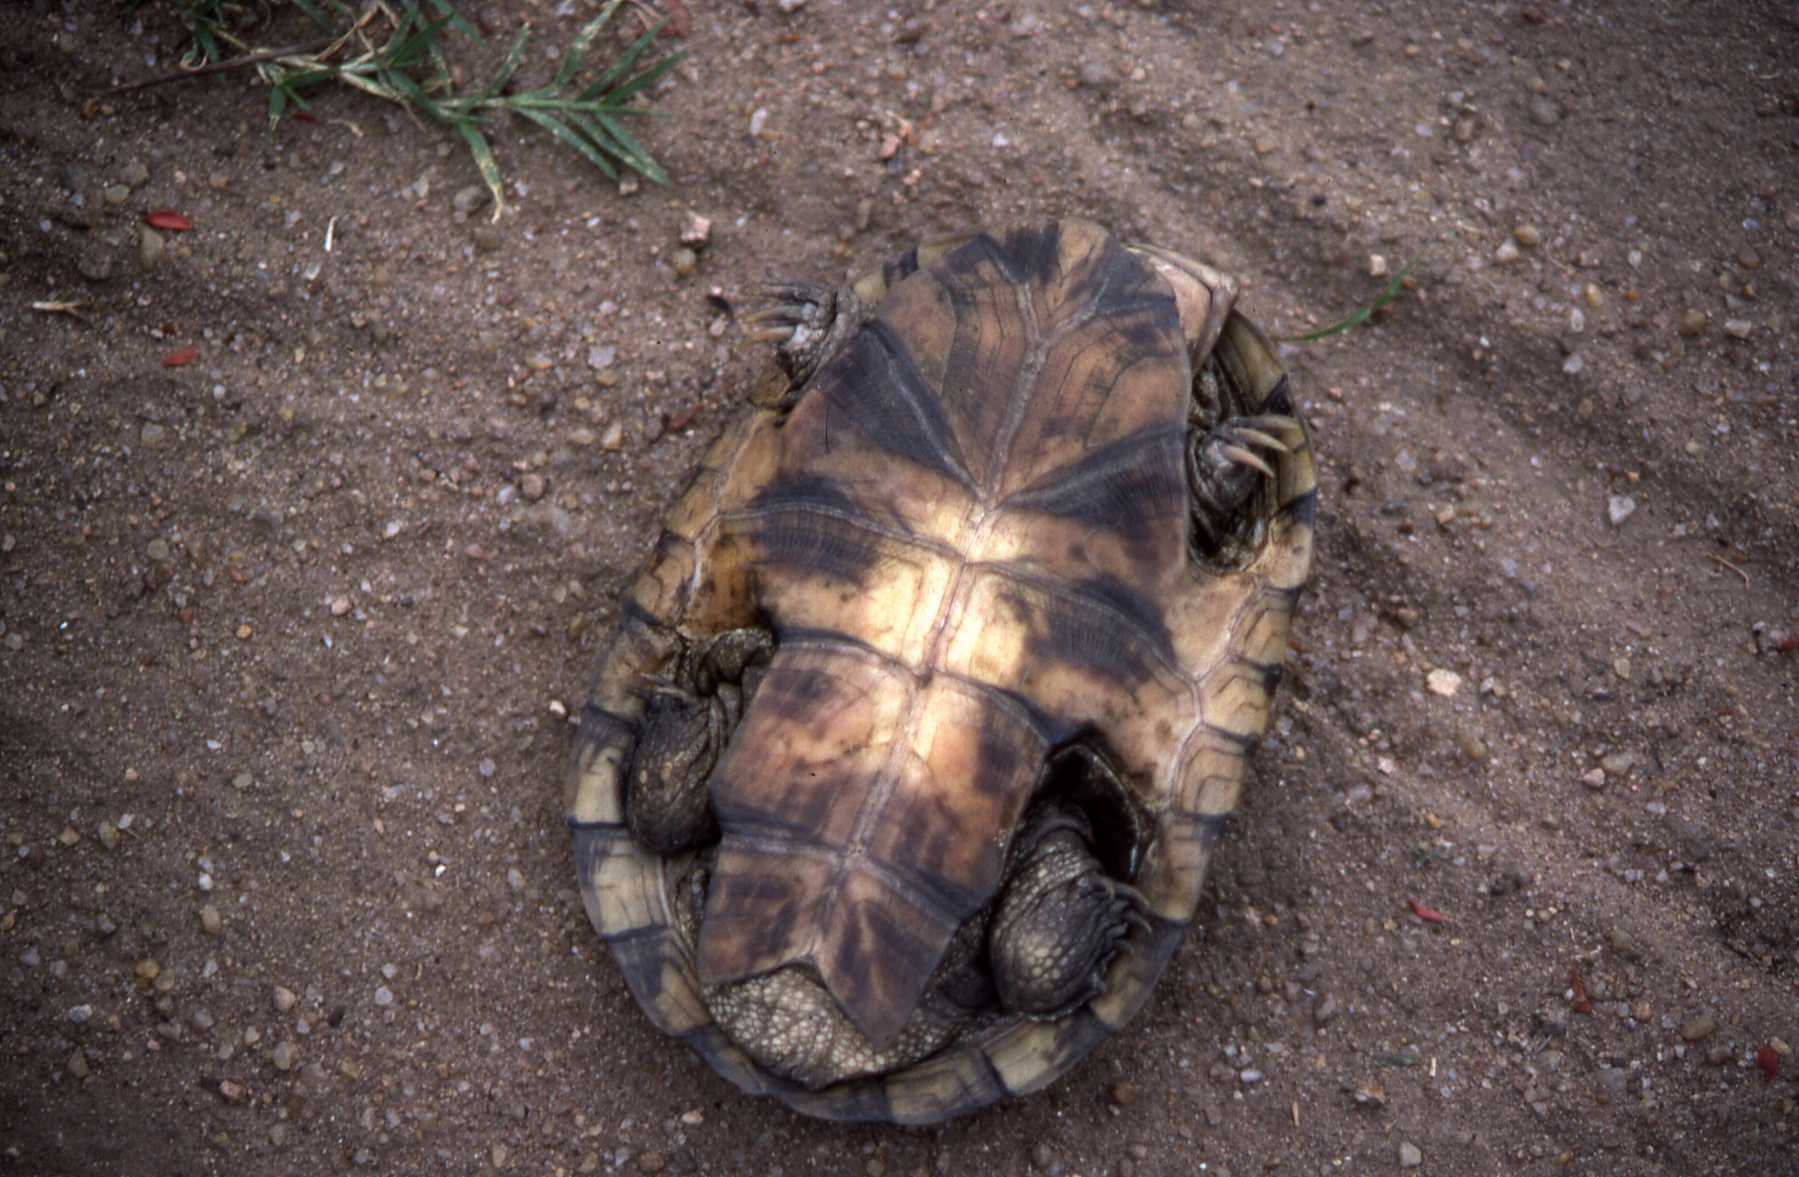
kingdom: Animalia
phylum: Chordata
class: Testudines
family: Pelomedusidae
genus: Pelomedusa
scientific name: Pelomedusa subrufa
